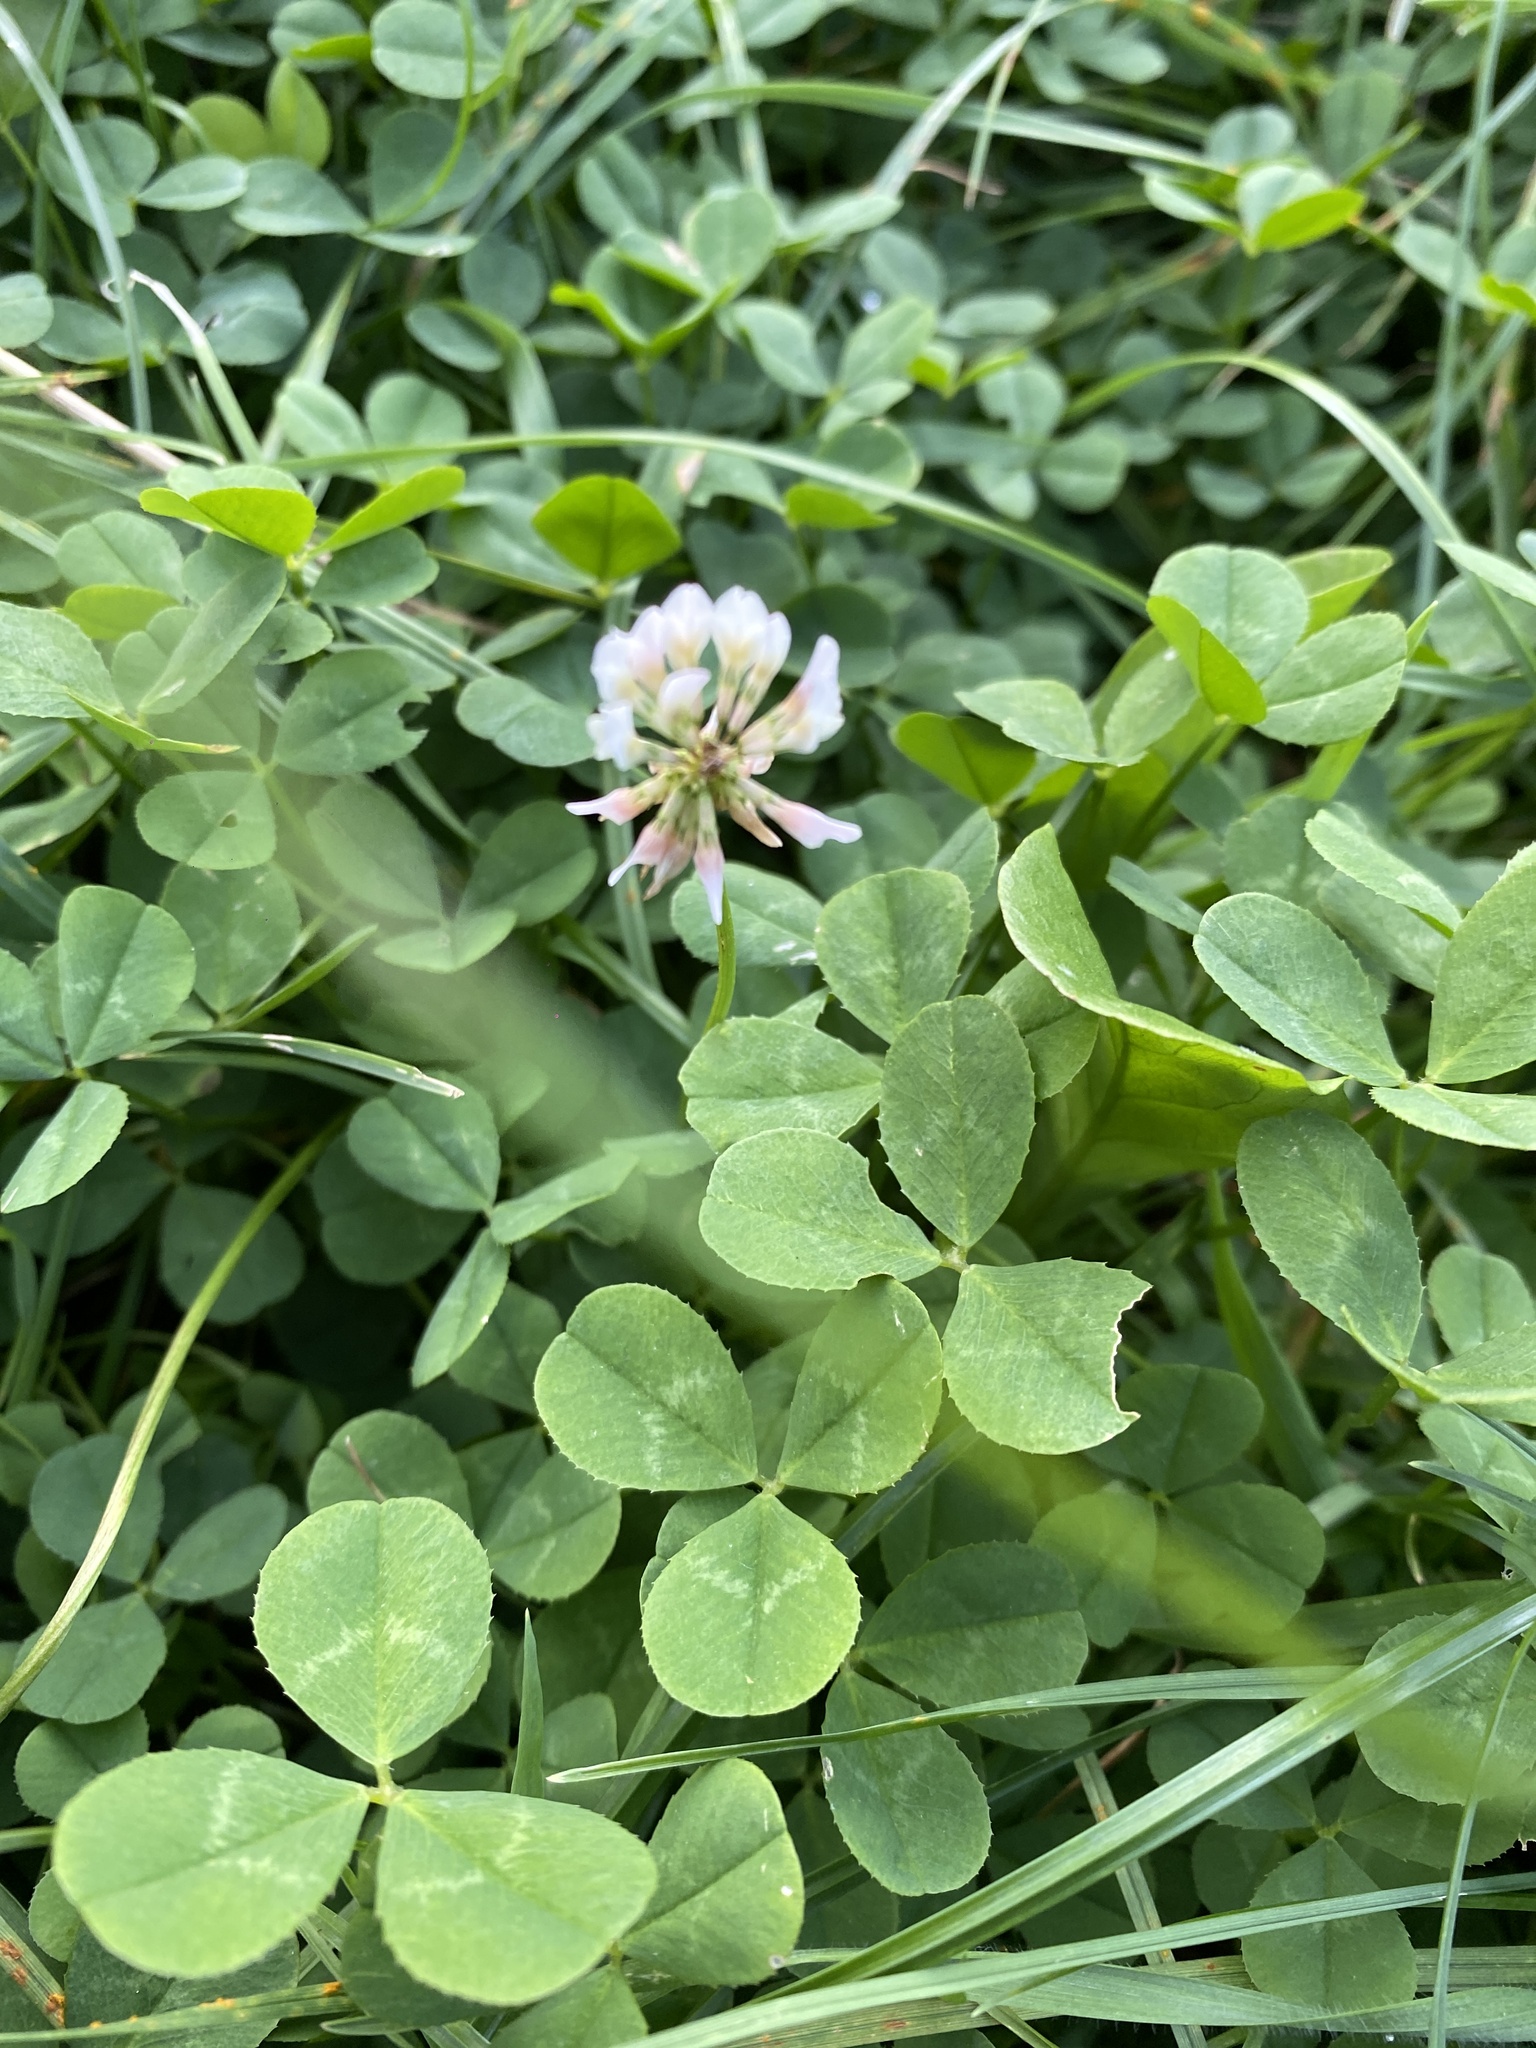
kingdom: Plantae
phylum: Tracheophyta
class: Magnoliopsida
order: Fabales
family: Fabaceae
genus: Trifolium
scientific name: Trifolium repens
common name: White clover
